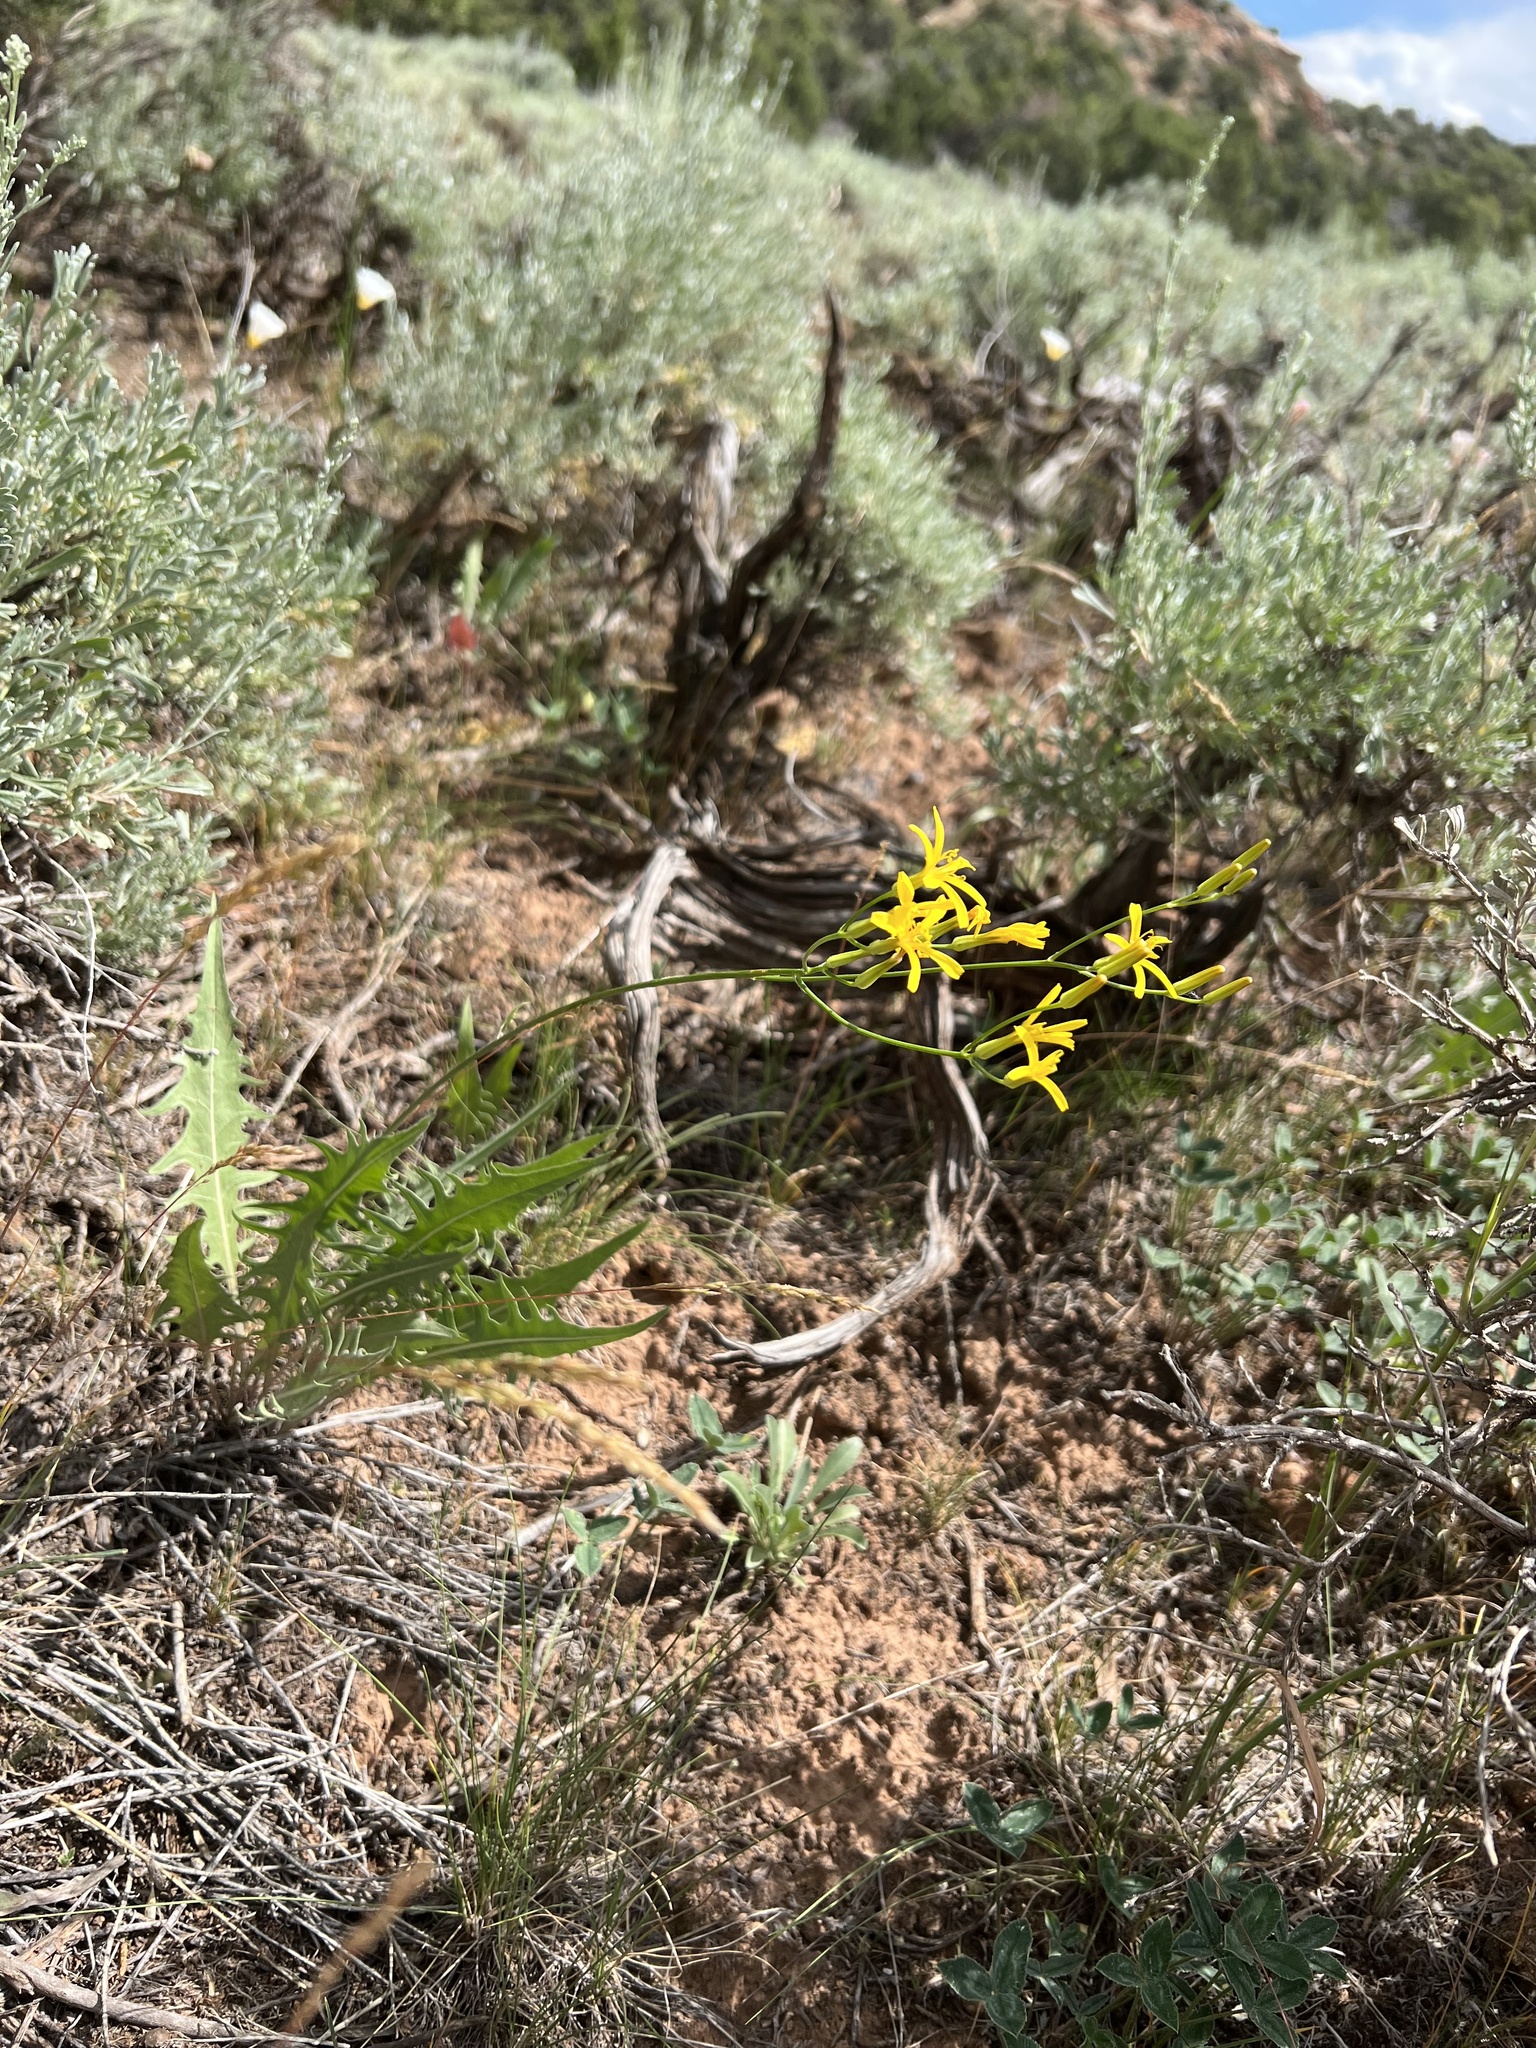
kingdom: Plantae
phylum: Tracheophyta
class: Magnoliopsida
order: Asterales
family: Asteraceae
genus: Crepis
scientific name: Crepis acuminata
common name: Longleaf hawk's-beard
